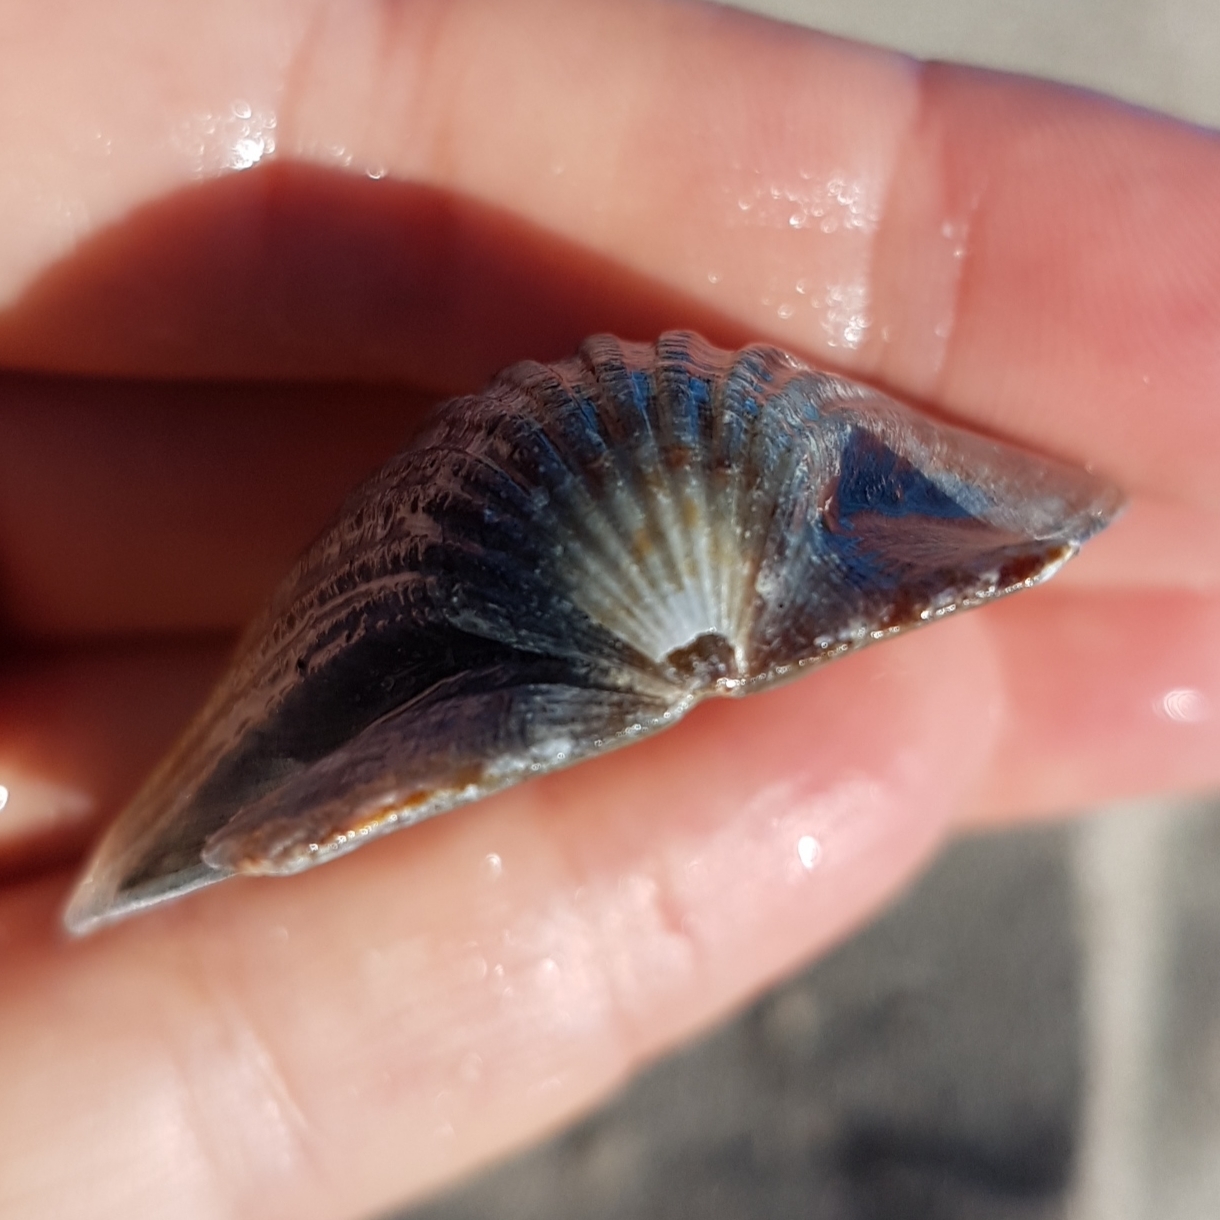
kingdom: Animalia
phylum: Mollusca
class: Bivalvia
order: Pectinida
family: Pectinidae
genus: Flexopecten
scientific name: Flexopecten glaber
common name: Smooth scallop
